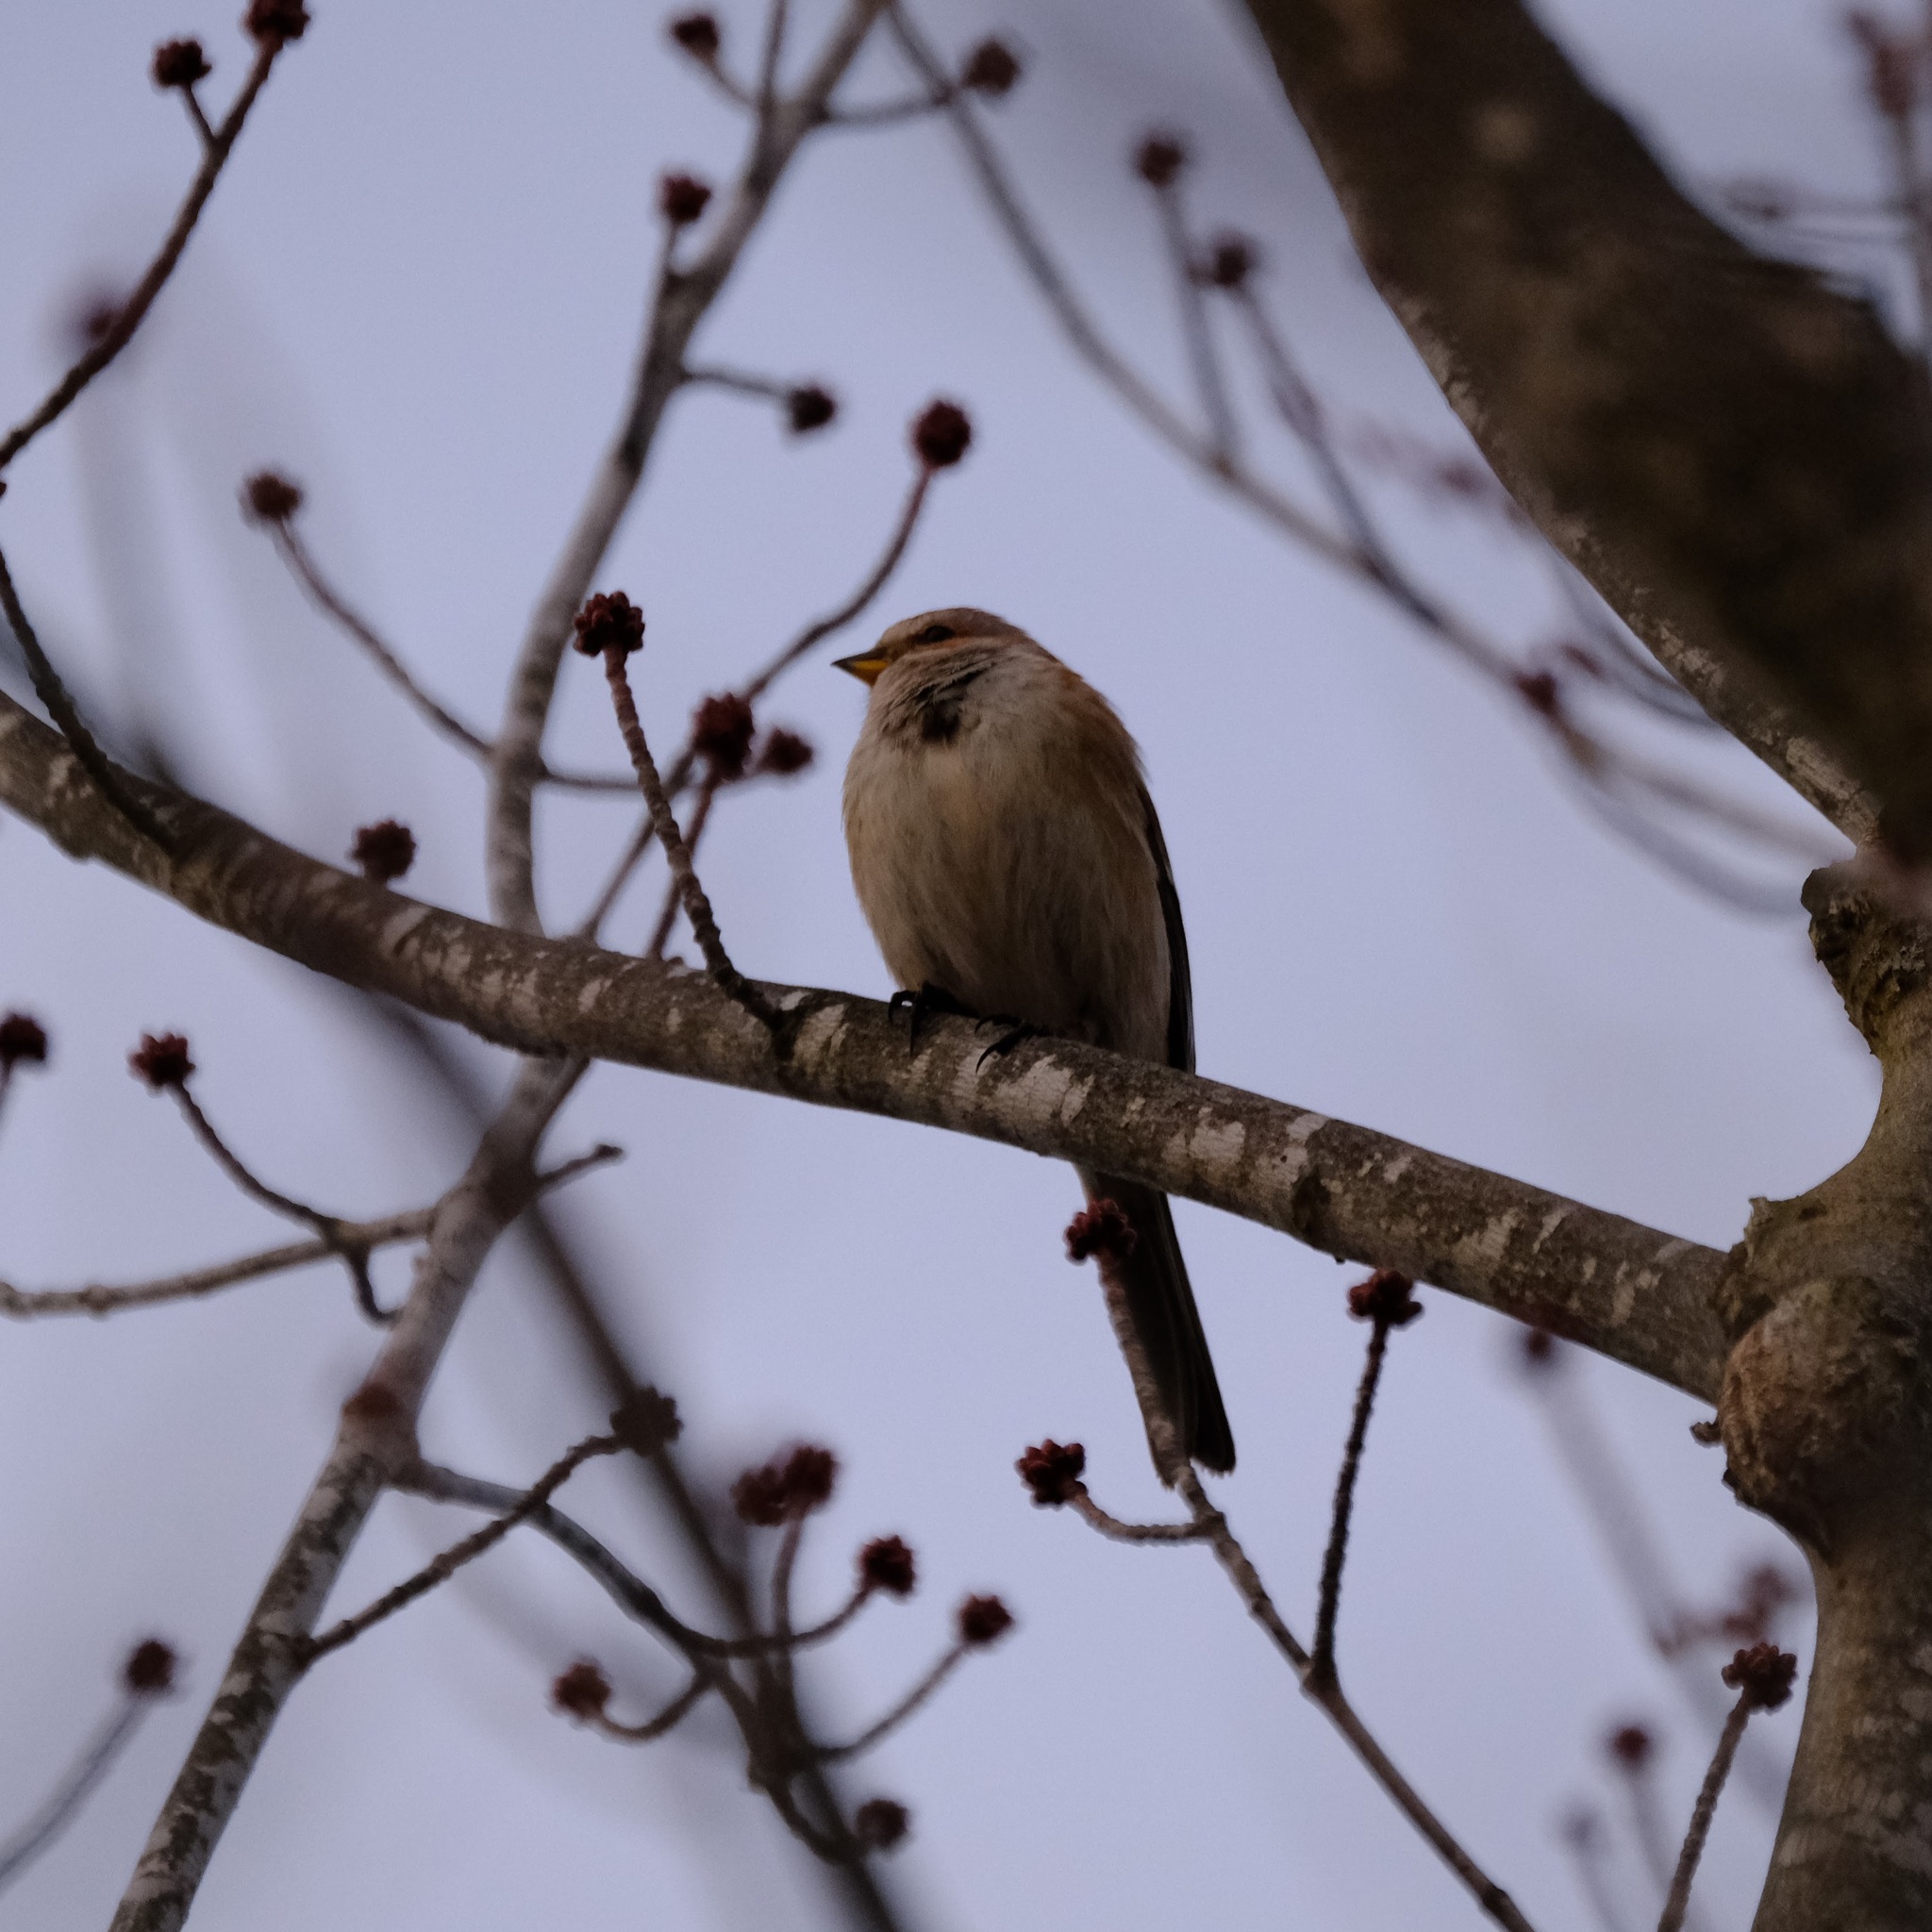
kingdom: Animalia
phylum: Chordata
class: Aves
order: Passeriformes
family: Passerellidae
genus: Spizelloides
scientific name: Spizelloides arborea
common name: American tree sparrow
